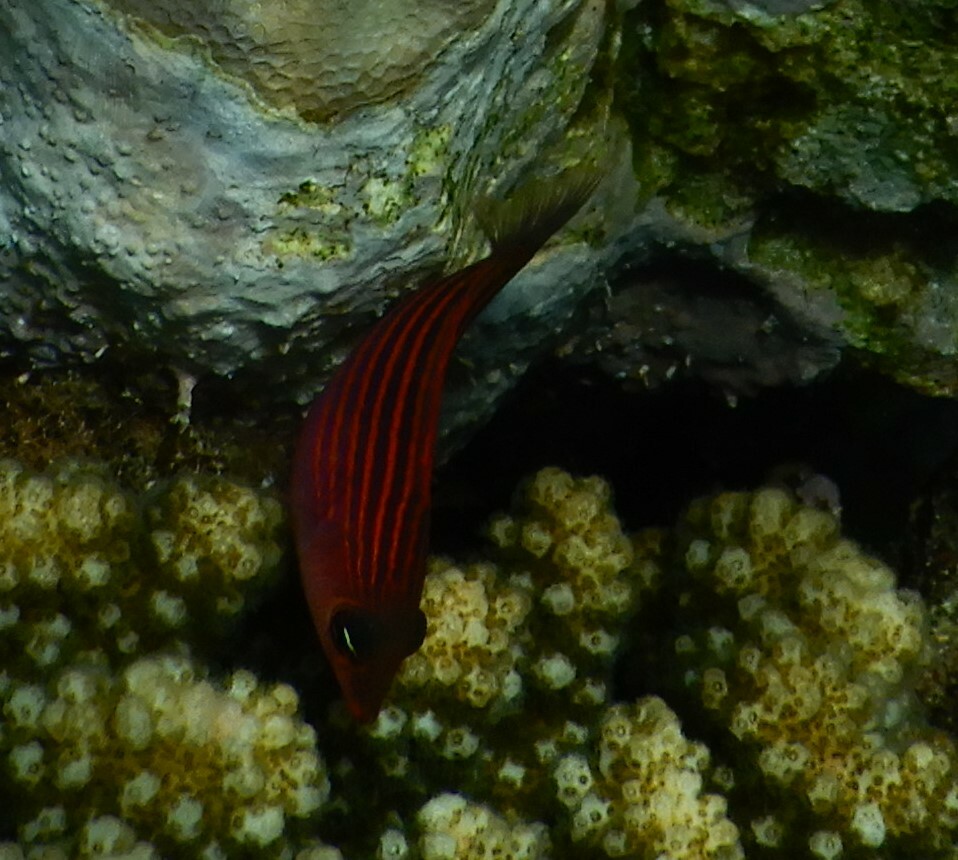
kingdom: Animalia
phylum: Chordata
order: Perciformes
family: Labridae
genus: Pseudocheilinus
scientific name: Pseudocheilinus hexataenia
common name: Sixline wrasse
